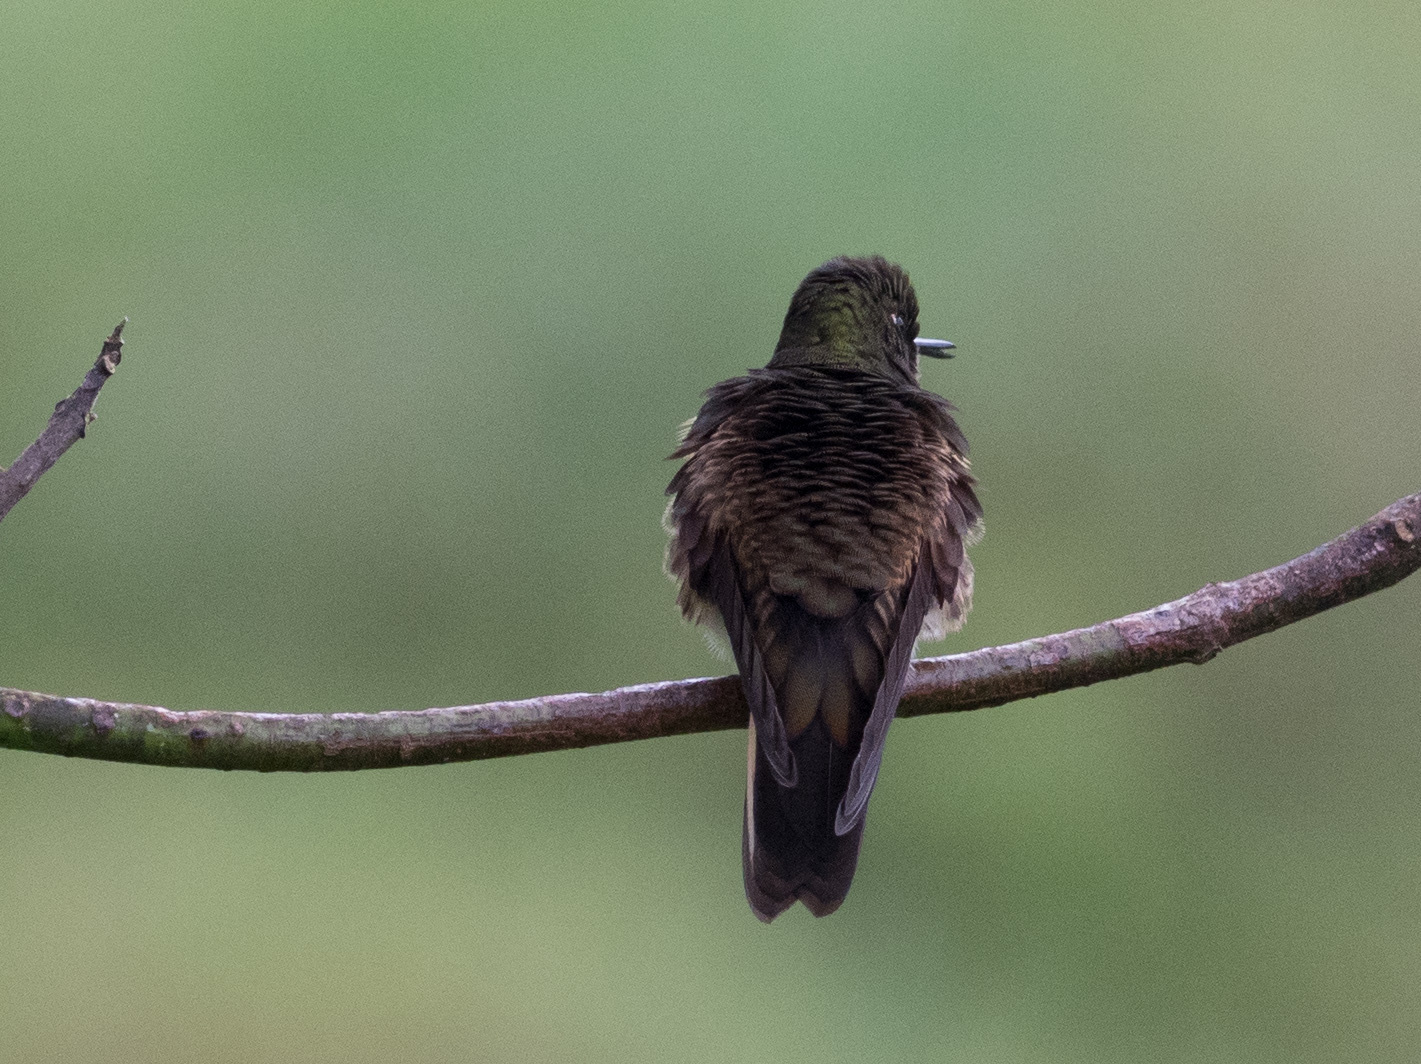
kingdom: Animalia
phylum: Chordata
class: Aves
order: Apodiformes
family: Trochilidae
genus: Boissonneaua
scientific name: Boissonneaua flavescens
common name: Buff-tailed coronet
